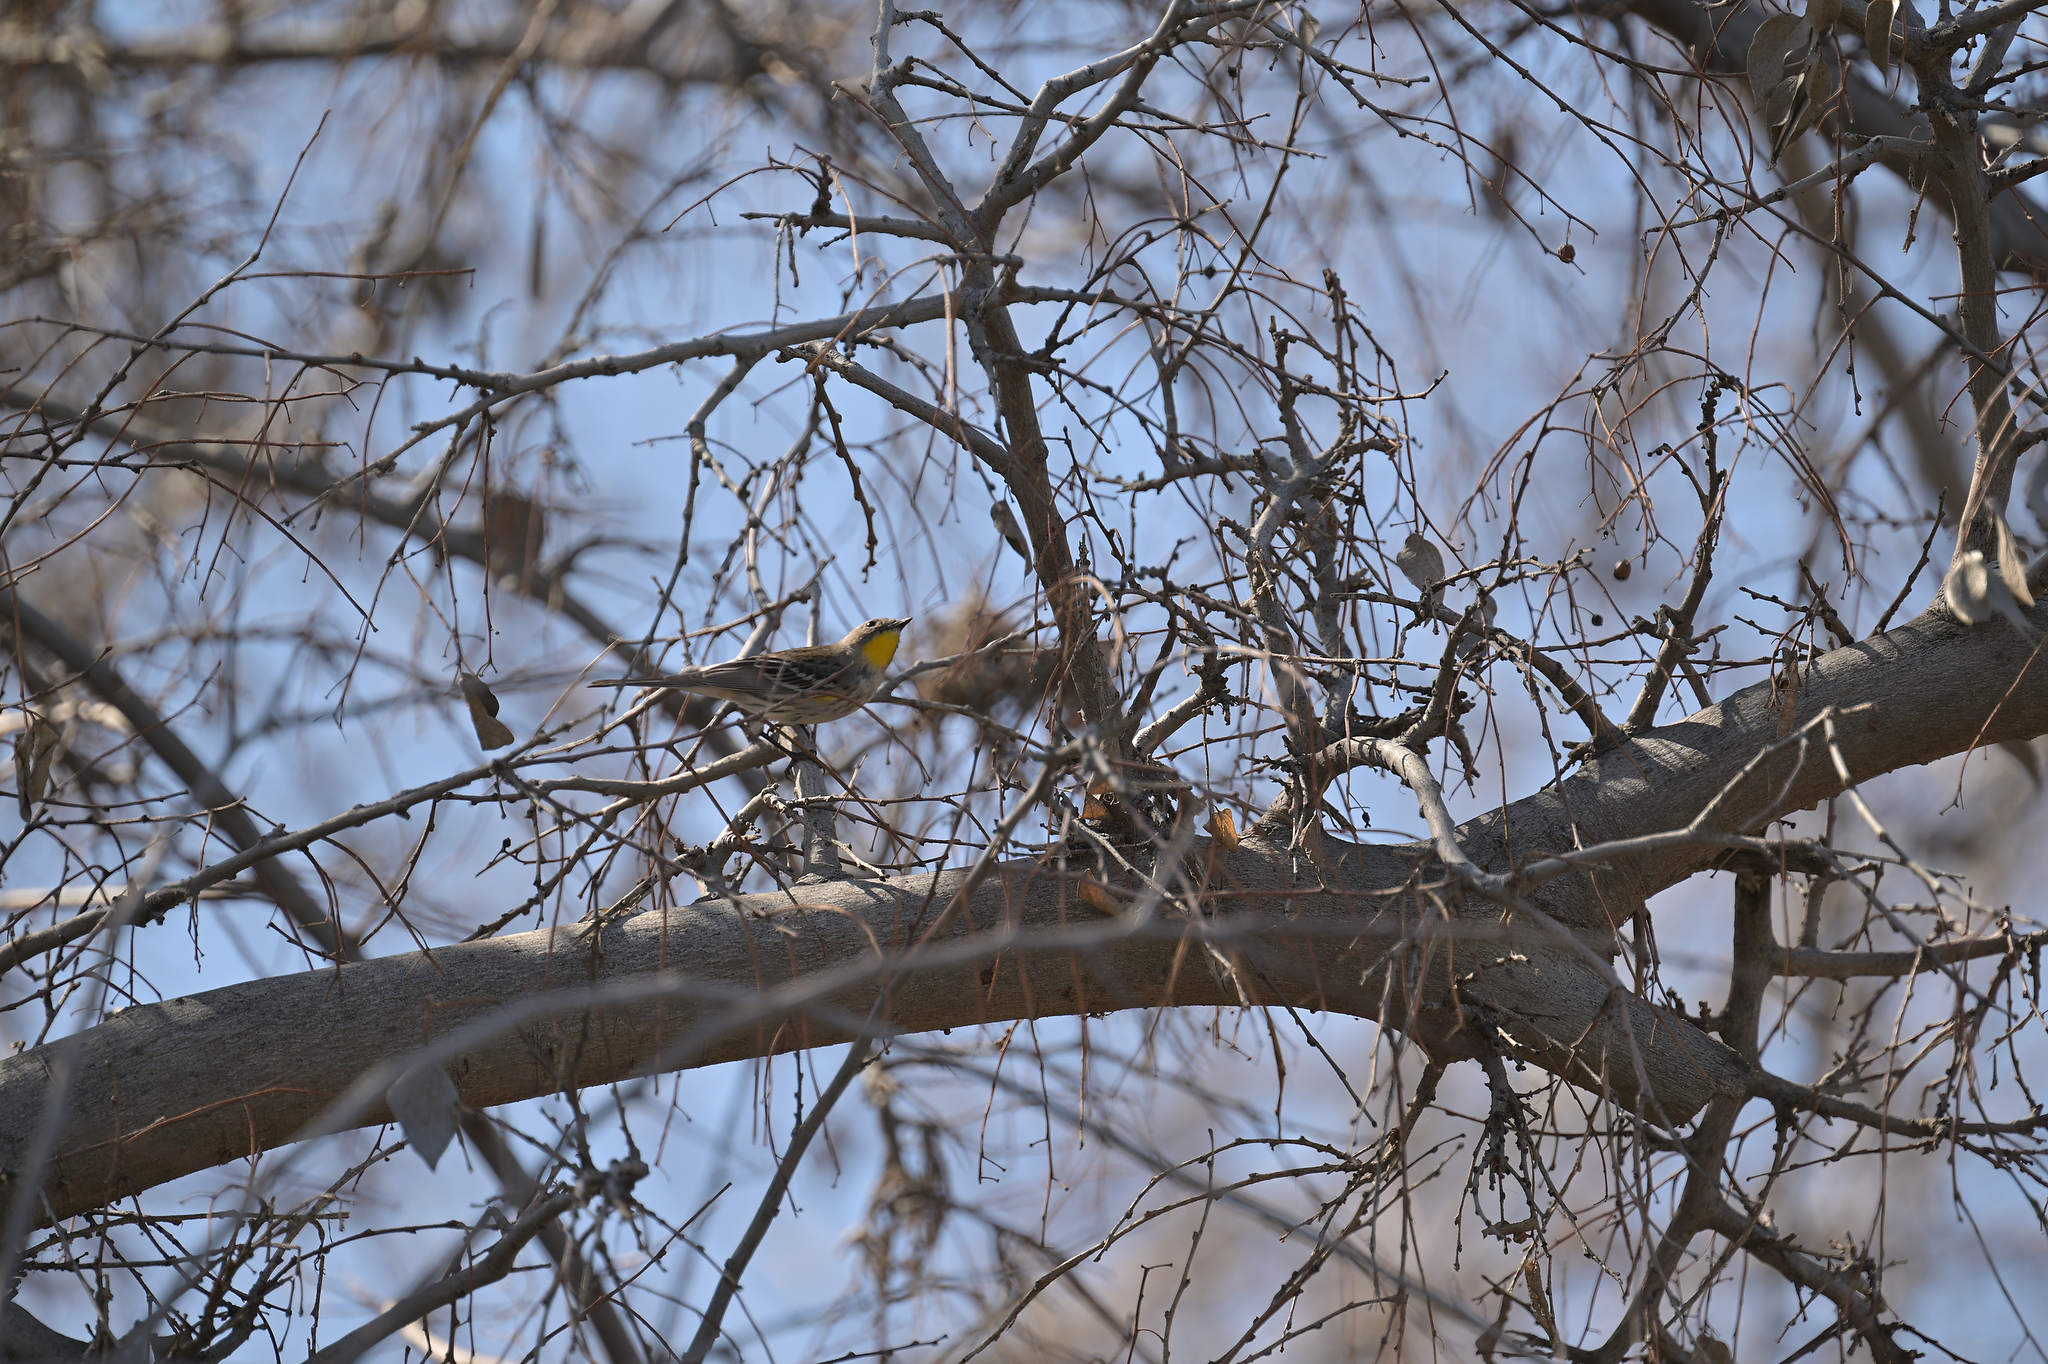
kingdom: Animalia
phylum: Chordata
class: Aves
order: Passeriformes
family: Parulidae
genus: Setophaga
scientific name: Setophaga coronata
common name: Myrtle warbler
